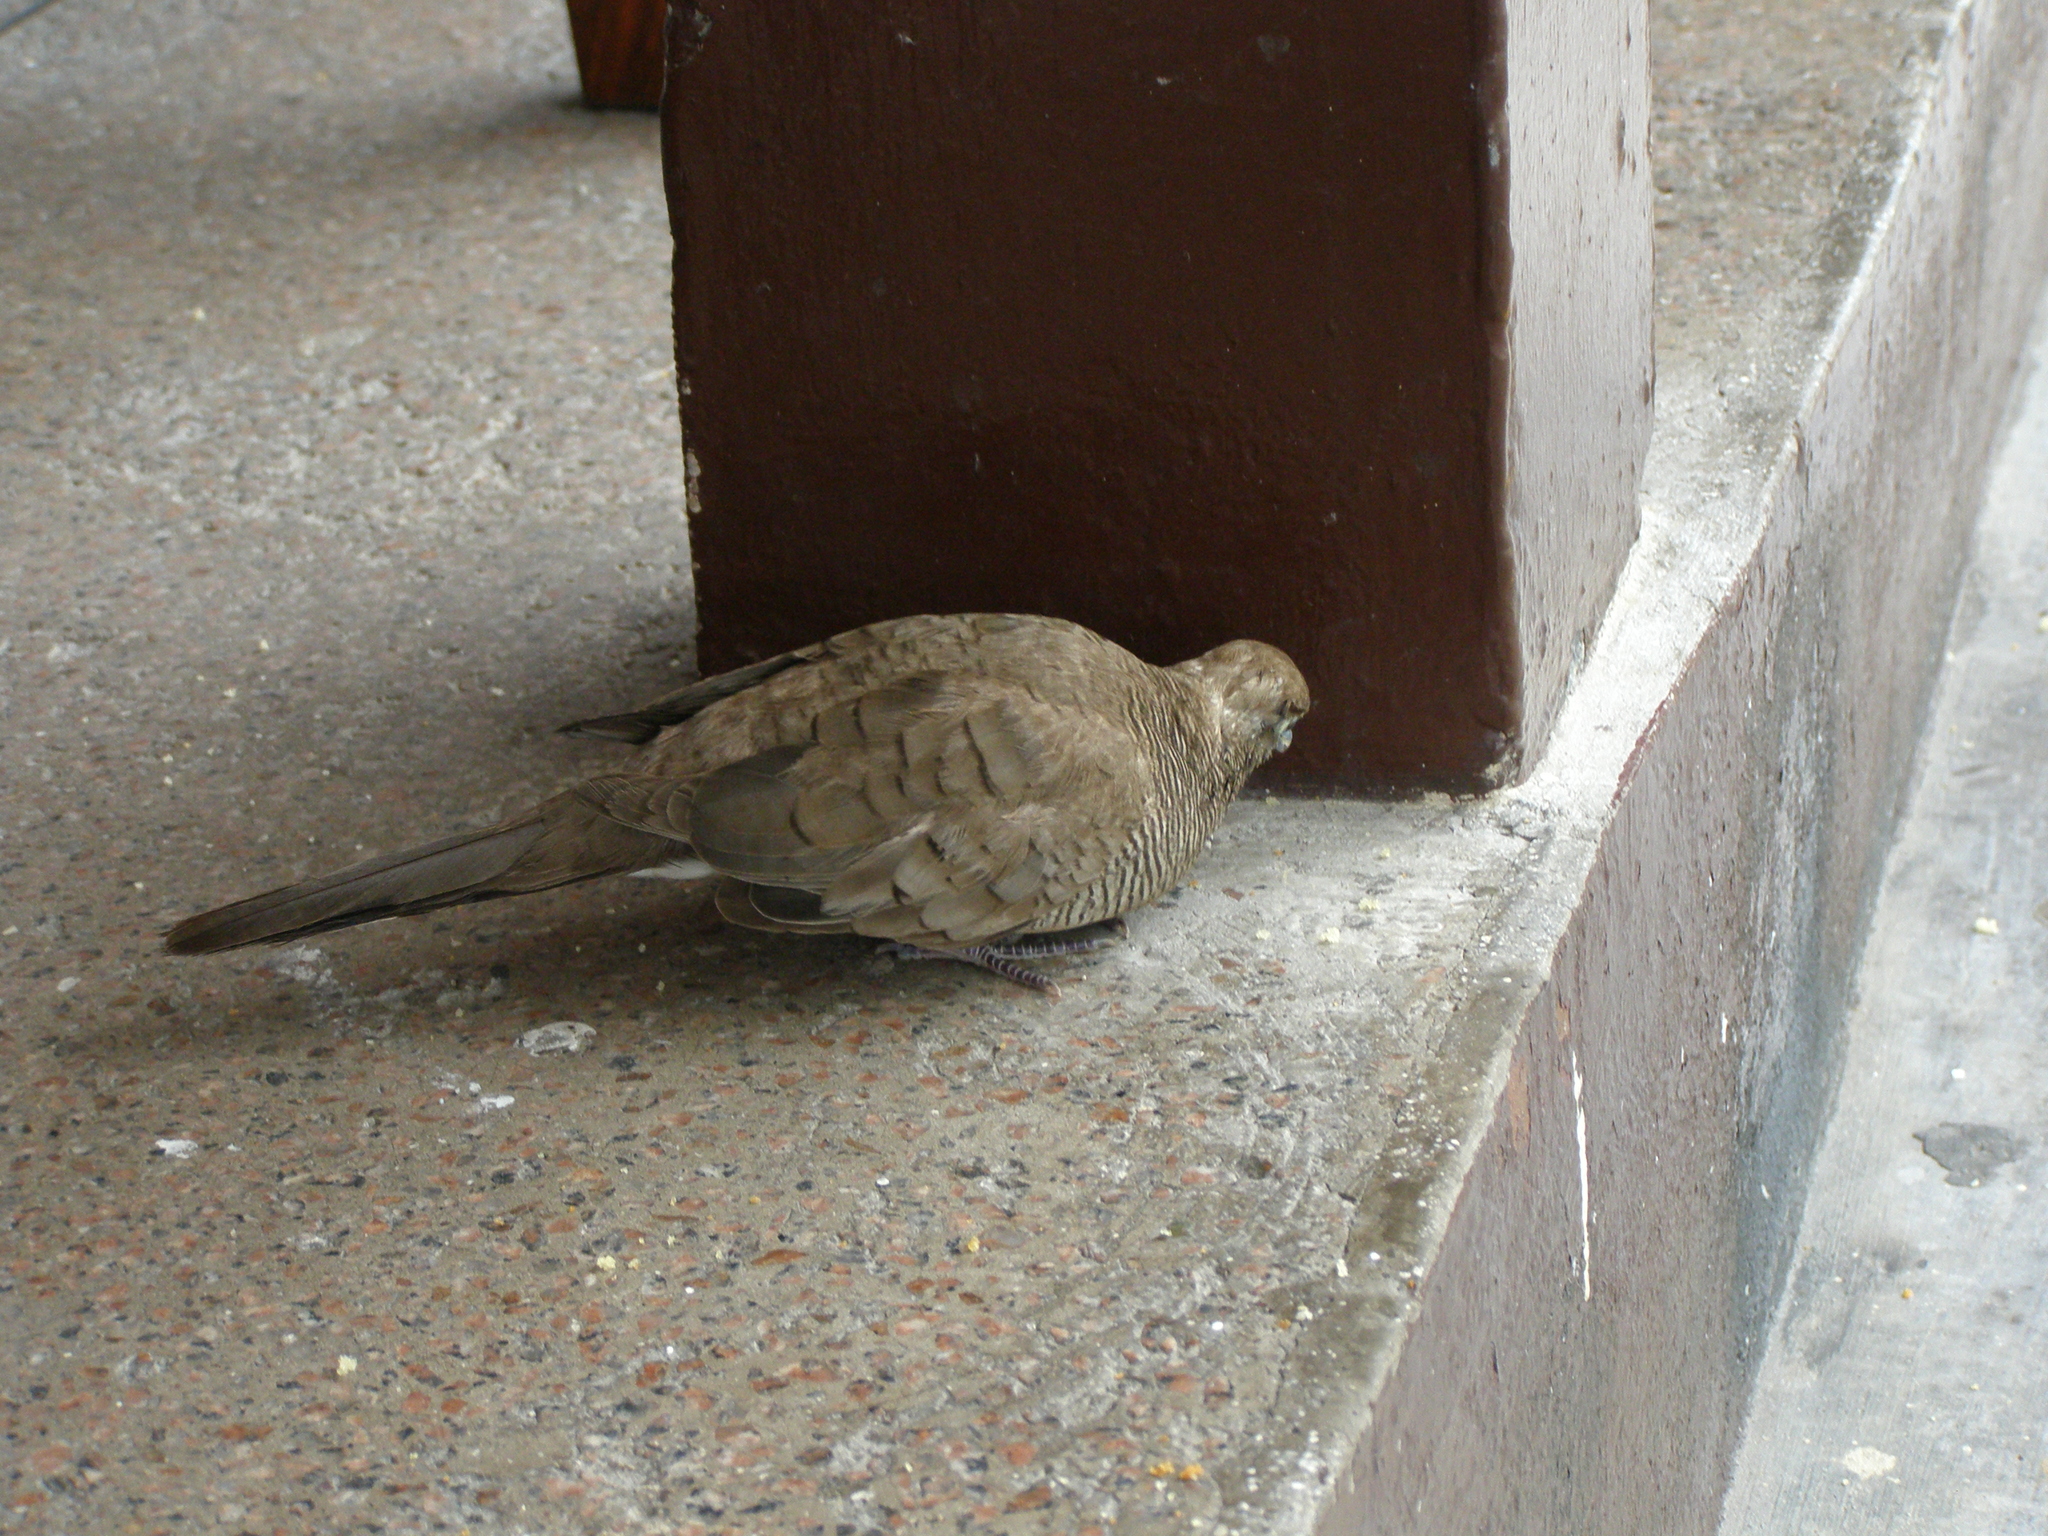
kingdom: Animalia
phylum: Chordata
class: Aves
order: Columbiformes
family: Columbidae
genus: Geopelia
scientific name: Geopelia striata
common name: Zebra dove
